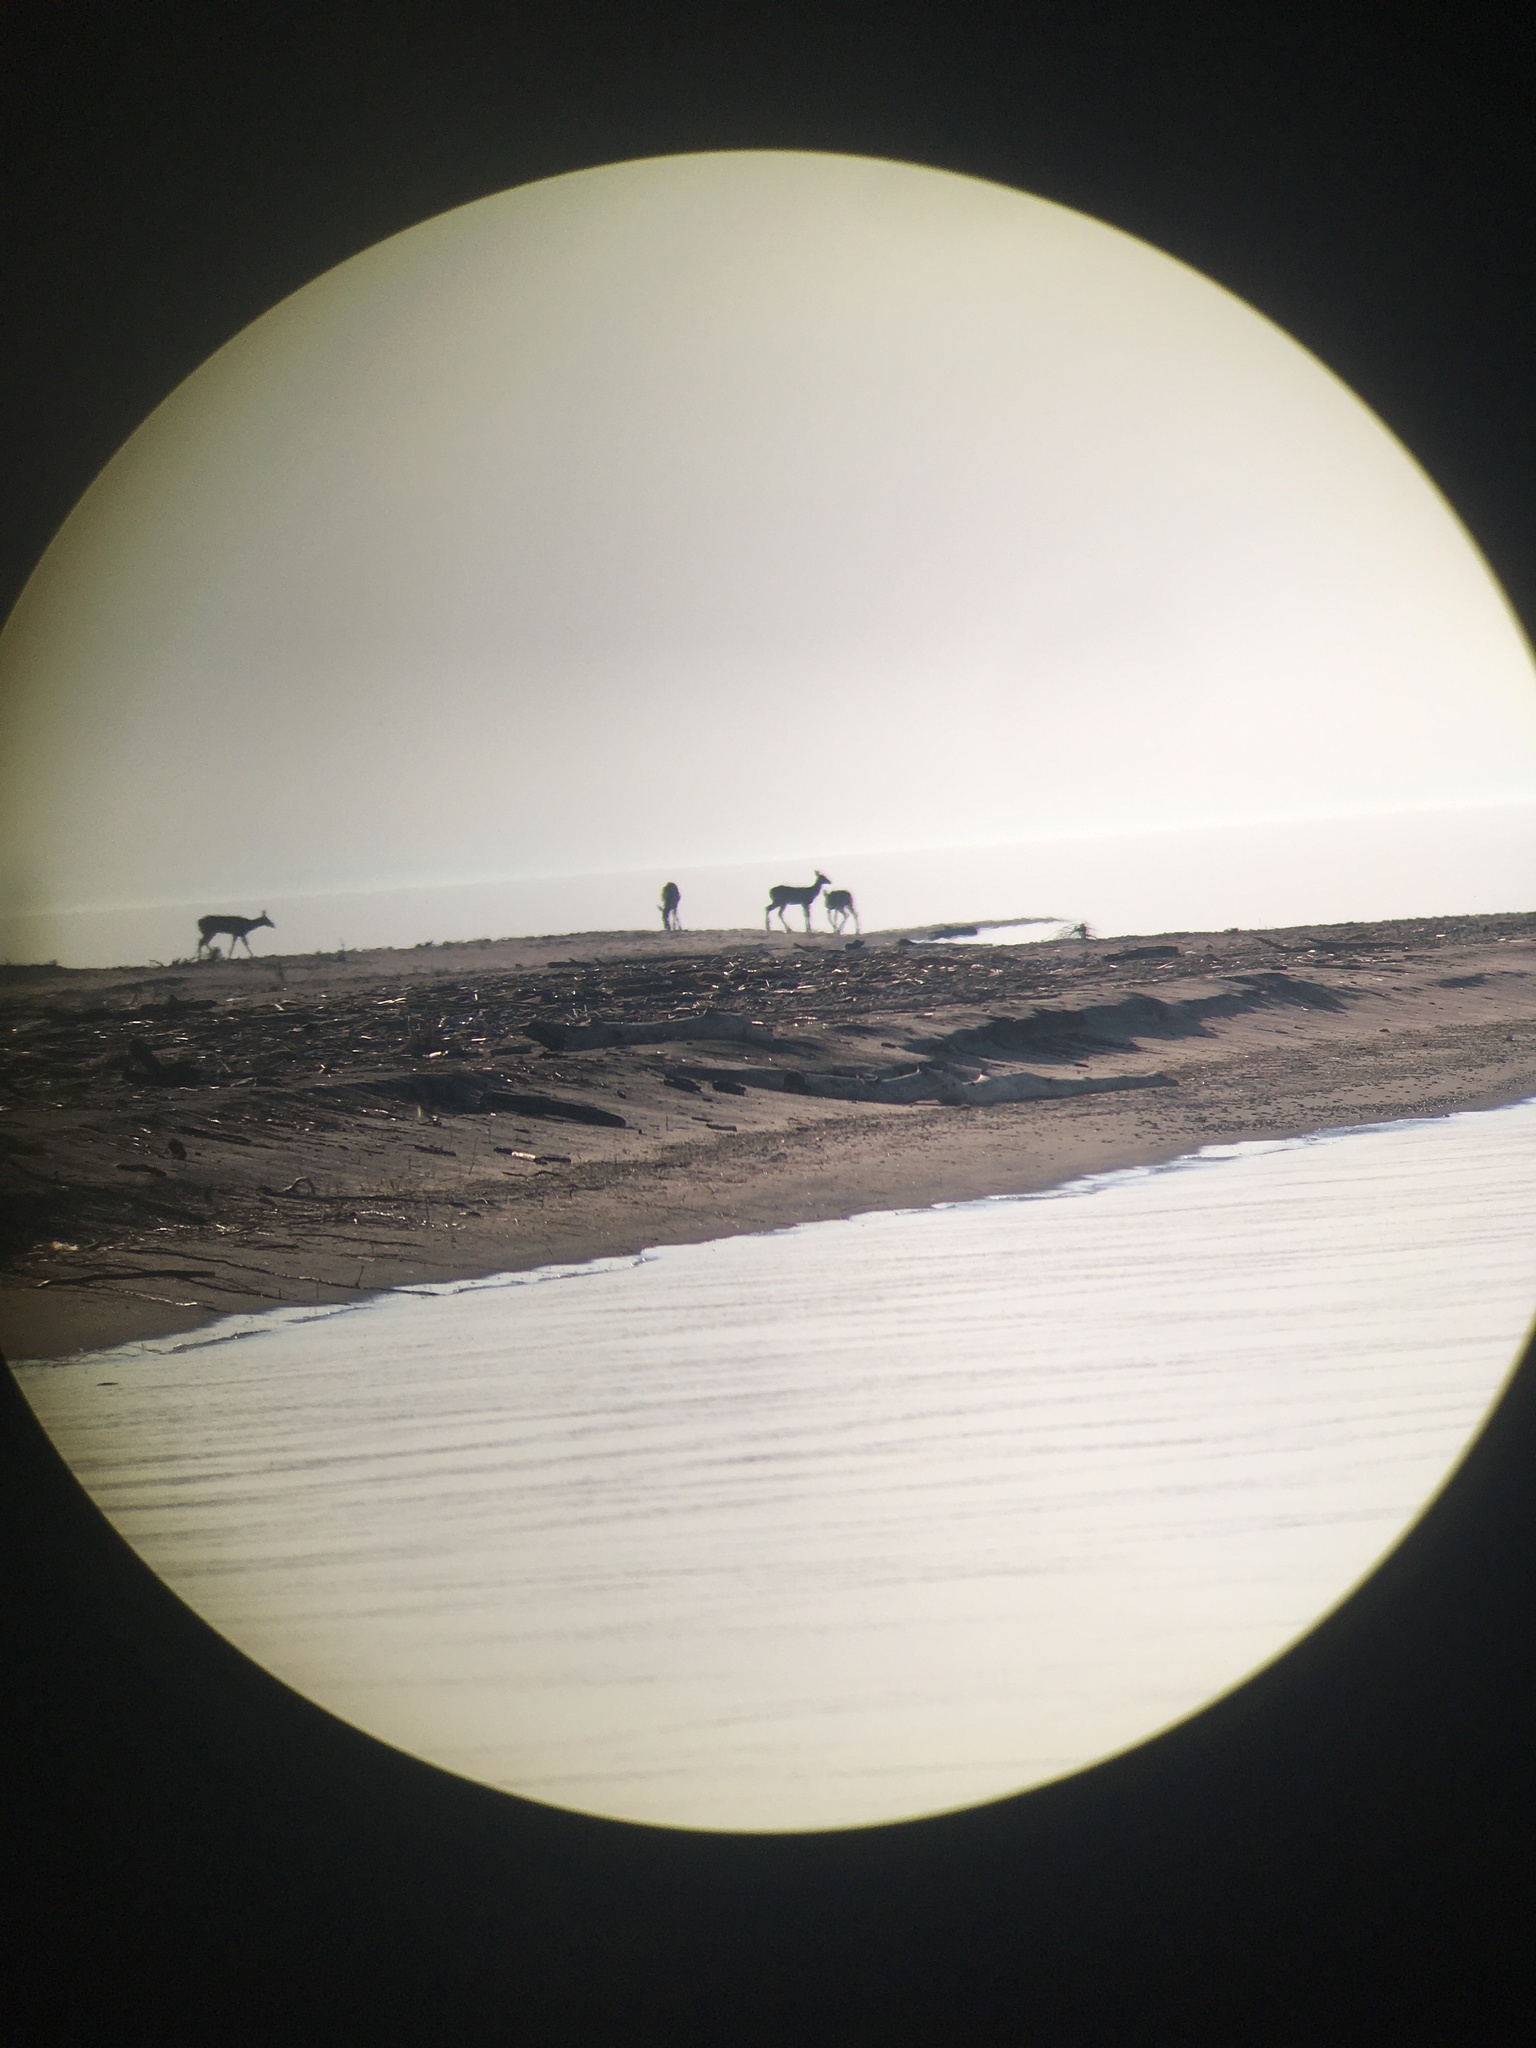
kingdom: Animalia
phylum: Chordata
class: Mammalia
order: Artiodactyla
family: Cervidae
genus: Odocoileus
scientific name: Odocoileus virginianus
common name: White-tailed deer
